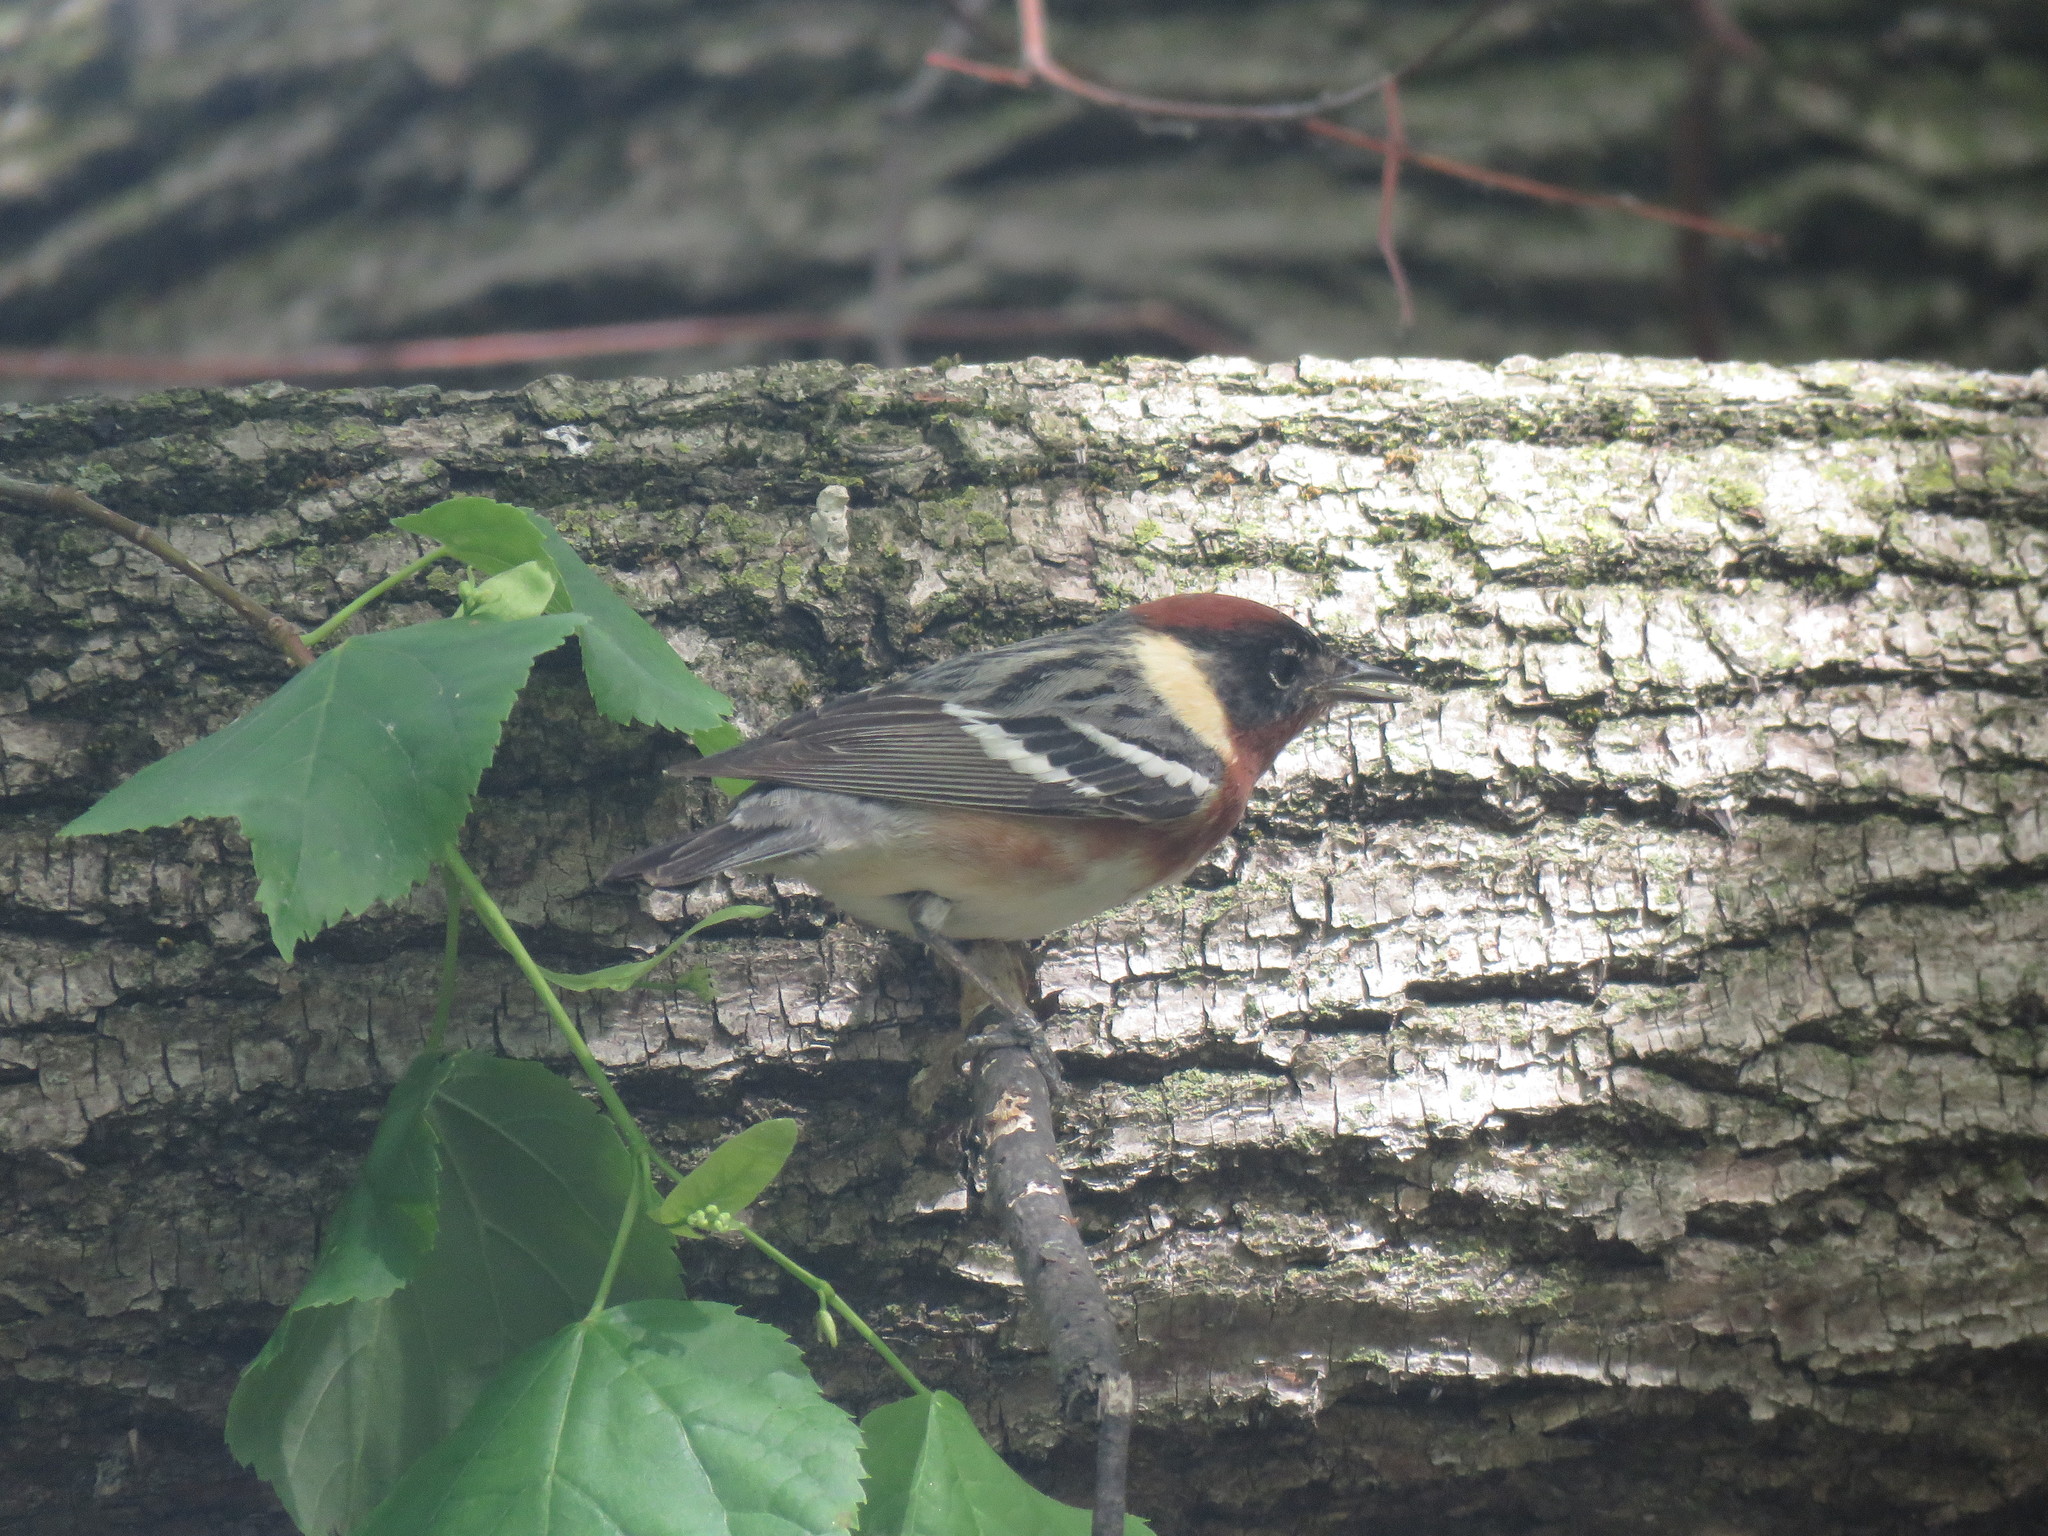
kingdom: Animalia
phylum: Chordata
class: Aves
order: Passeriformes
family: Parulidae
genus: Setophaga
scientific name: Setophaga castanea
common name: Bay-breasted warbler
